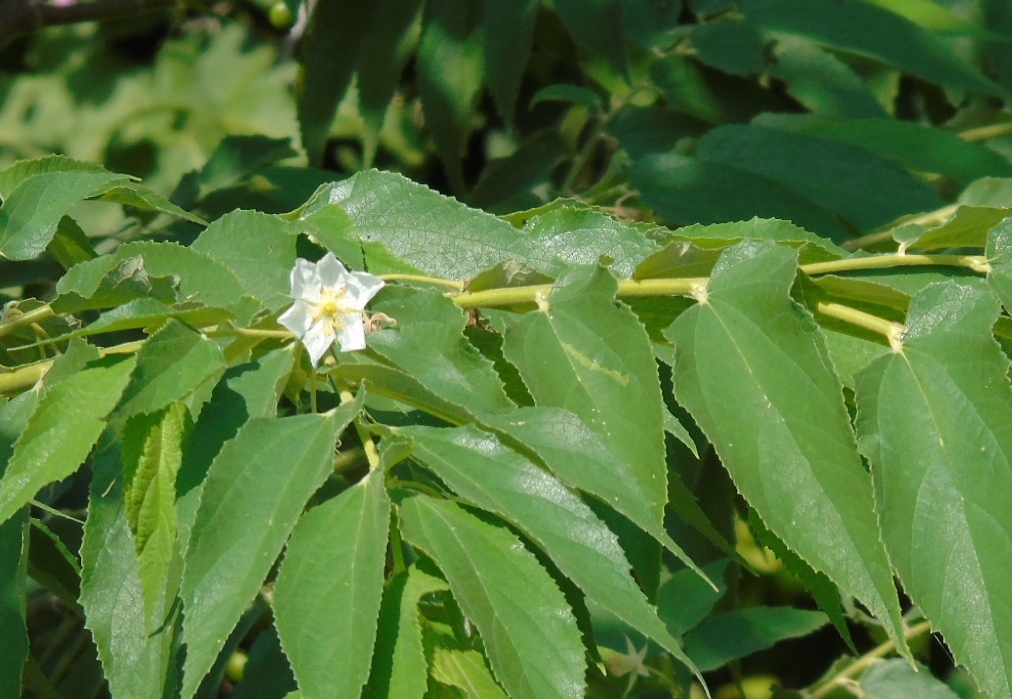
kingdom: Plantae
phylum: Tracheophyta
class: Magnoliopsida
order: Malvales
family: Muntingiaceae
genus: Muntingia
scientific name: Muntingia calabura
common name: Strawberrytree
